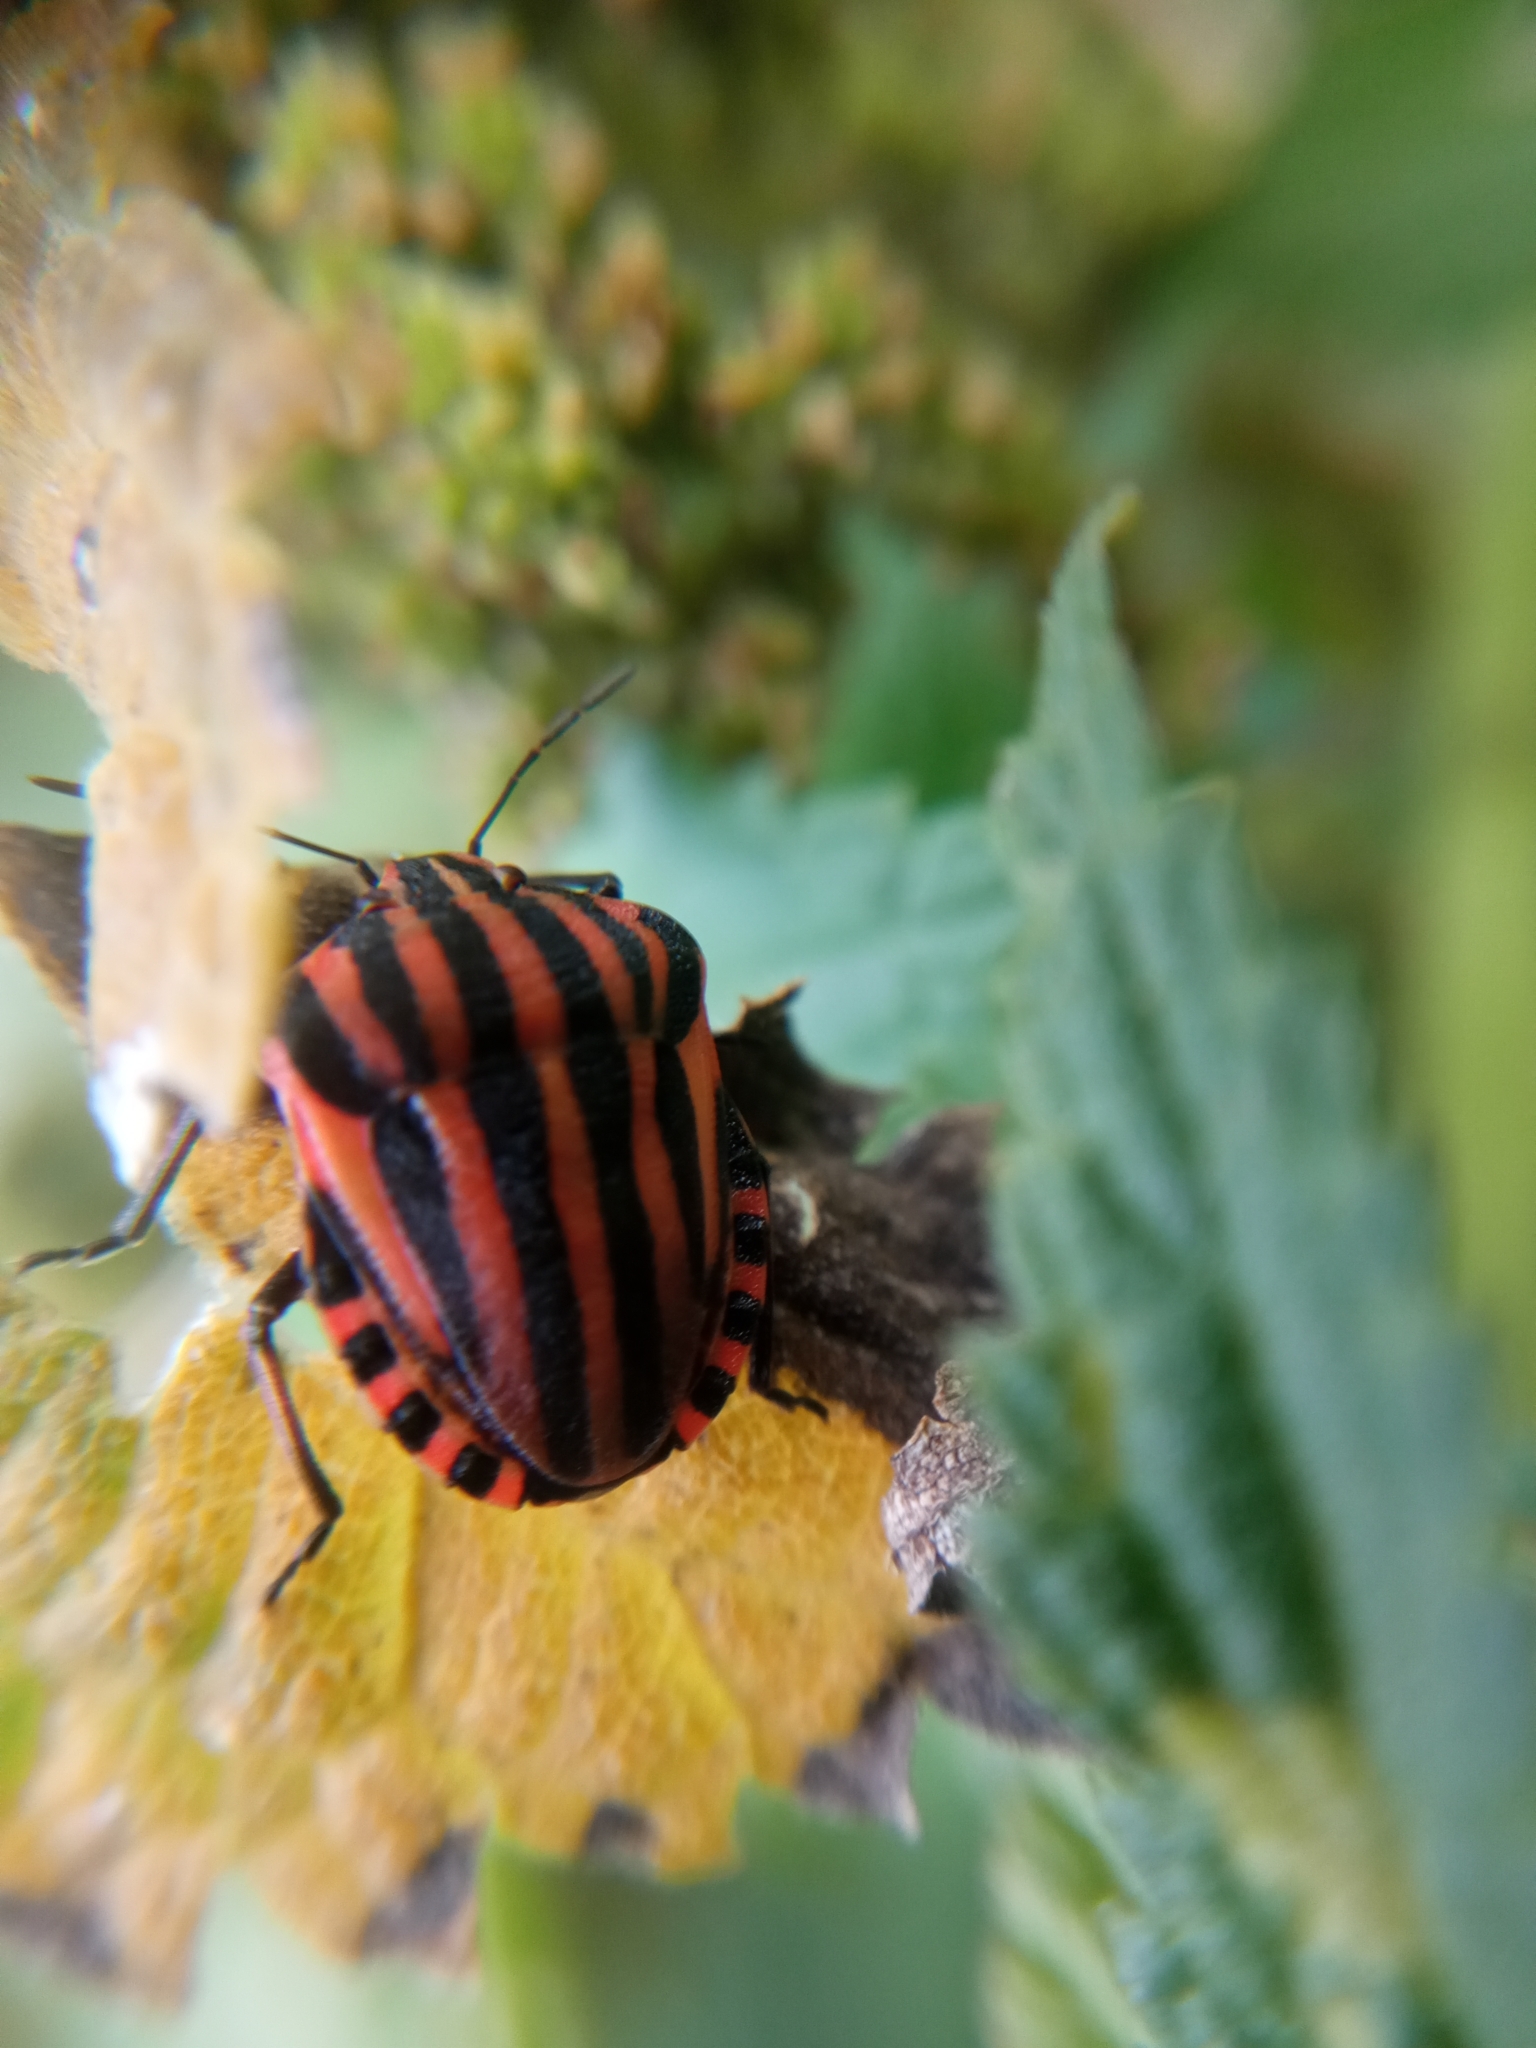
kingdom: Animalia
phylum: Arthropoda
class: Insecta
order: Hemiptera
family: Pentatomidae
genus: Graphosoma
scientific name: Graphosoma italicum
